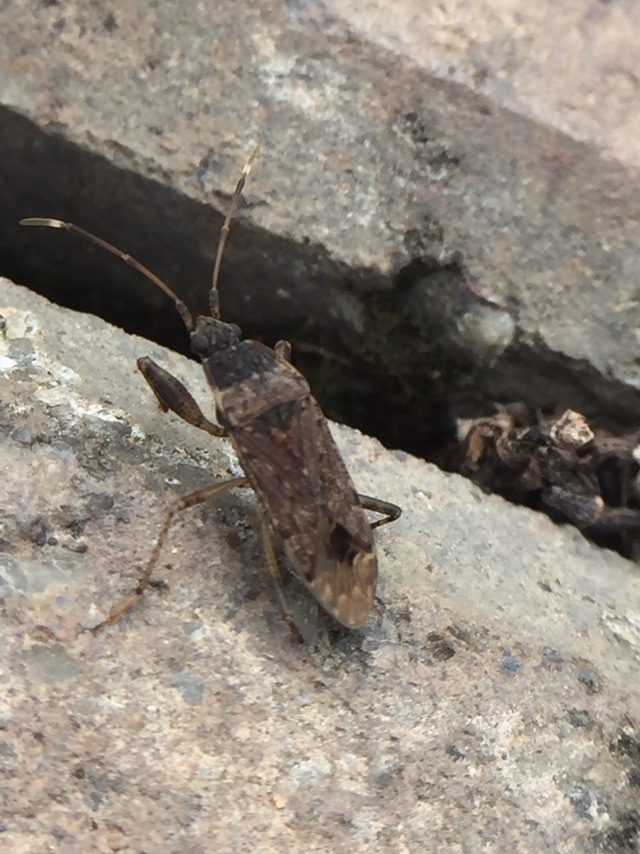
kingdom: Animalia
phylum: Arthropoda
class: Insecta
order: Hemiptera
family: Rhyparochromidae
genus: Elasmolomus
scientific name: Elasmolomus pallens
